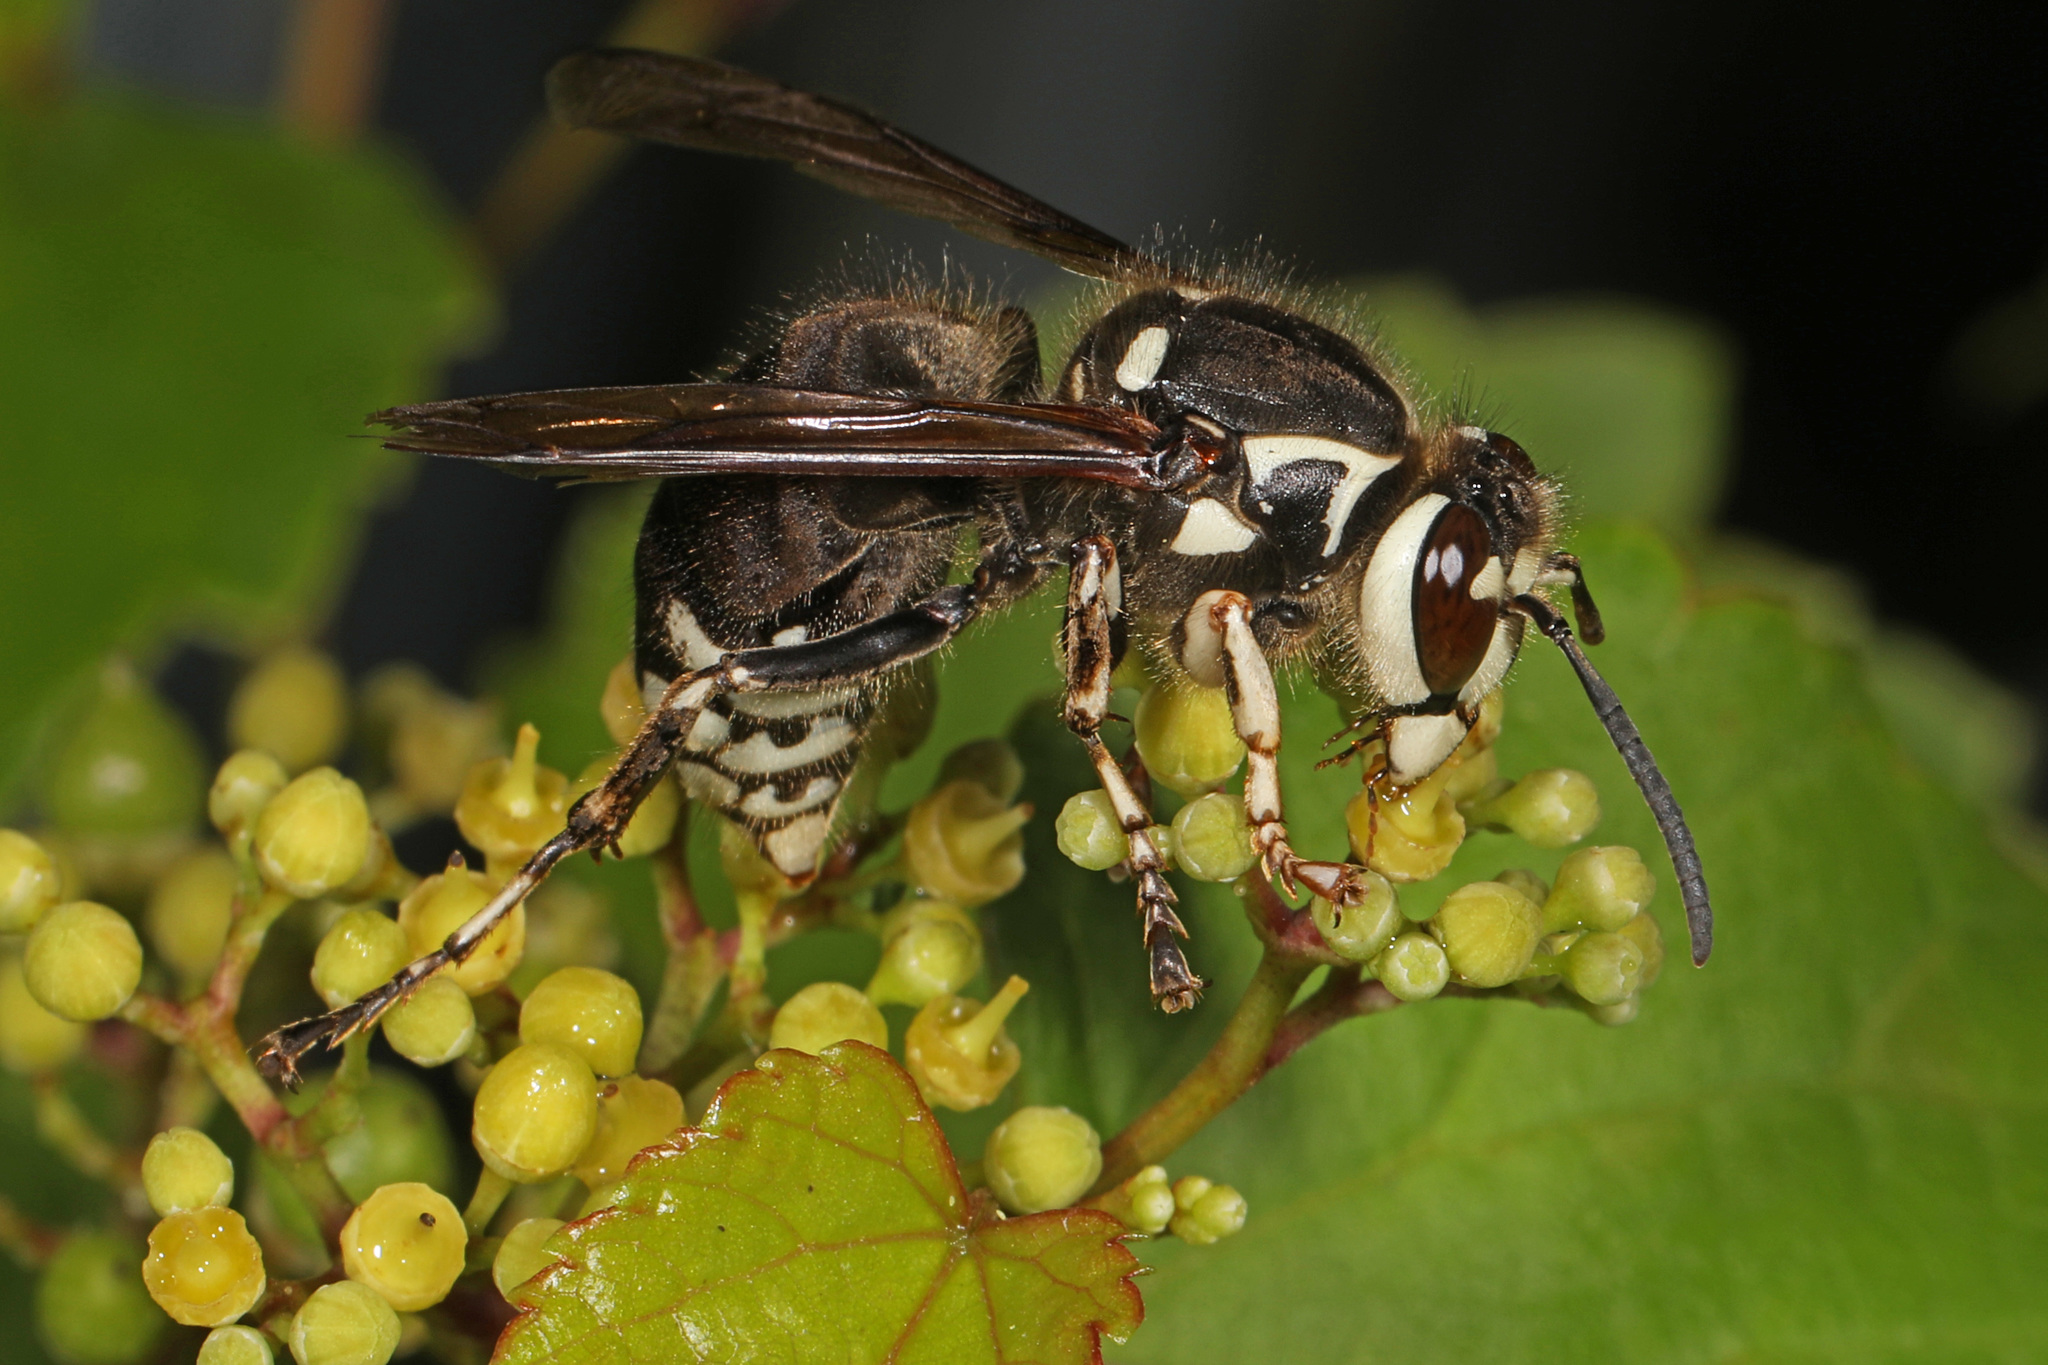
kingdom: Animalia
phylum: Arthropoda
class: Insecta
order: Hymenoptera
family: Vespidae
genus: Dolichovespula
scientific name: Dolichovespula maculata
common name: Bald-faced hornet
